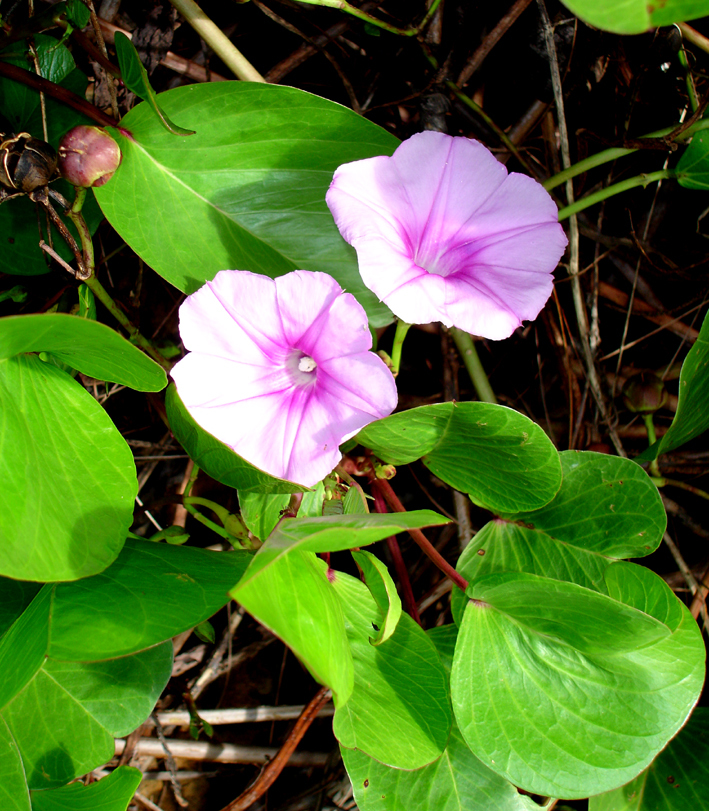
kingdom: Plantae
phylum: Tracheophyta
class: Magnoliopsida
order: Solanales
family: Convolvulaceae
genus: Ipomoea
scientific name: Ipomoea pes-caprae
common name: Beach morning glory
